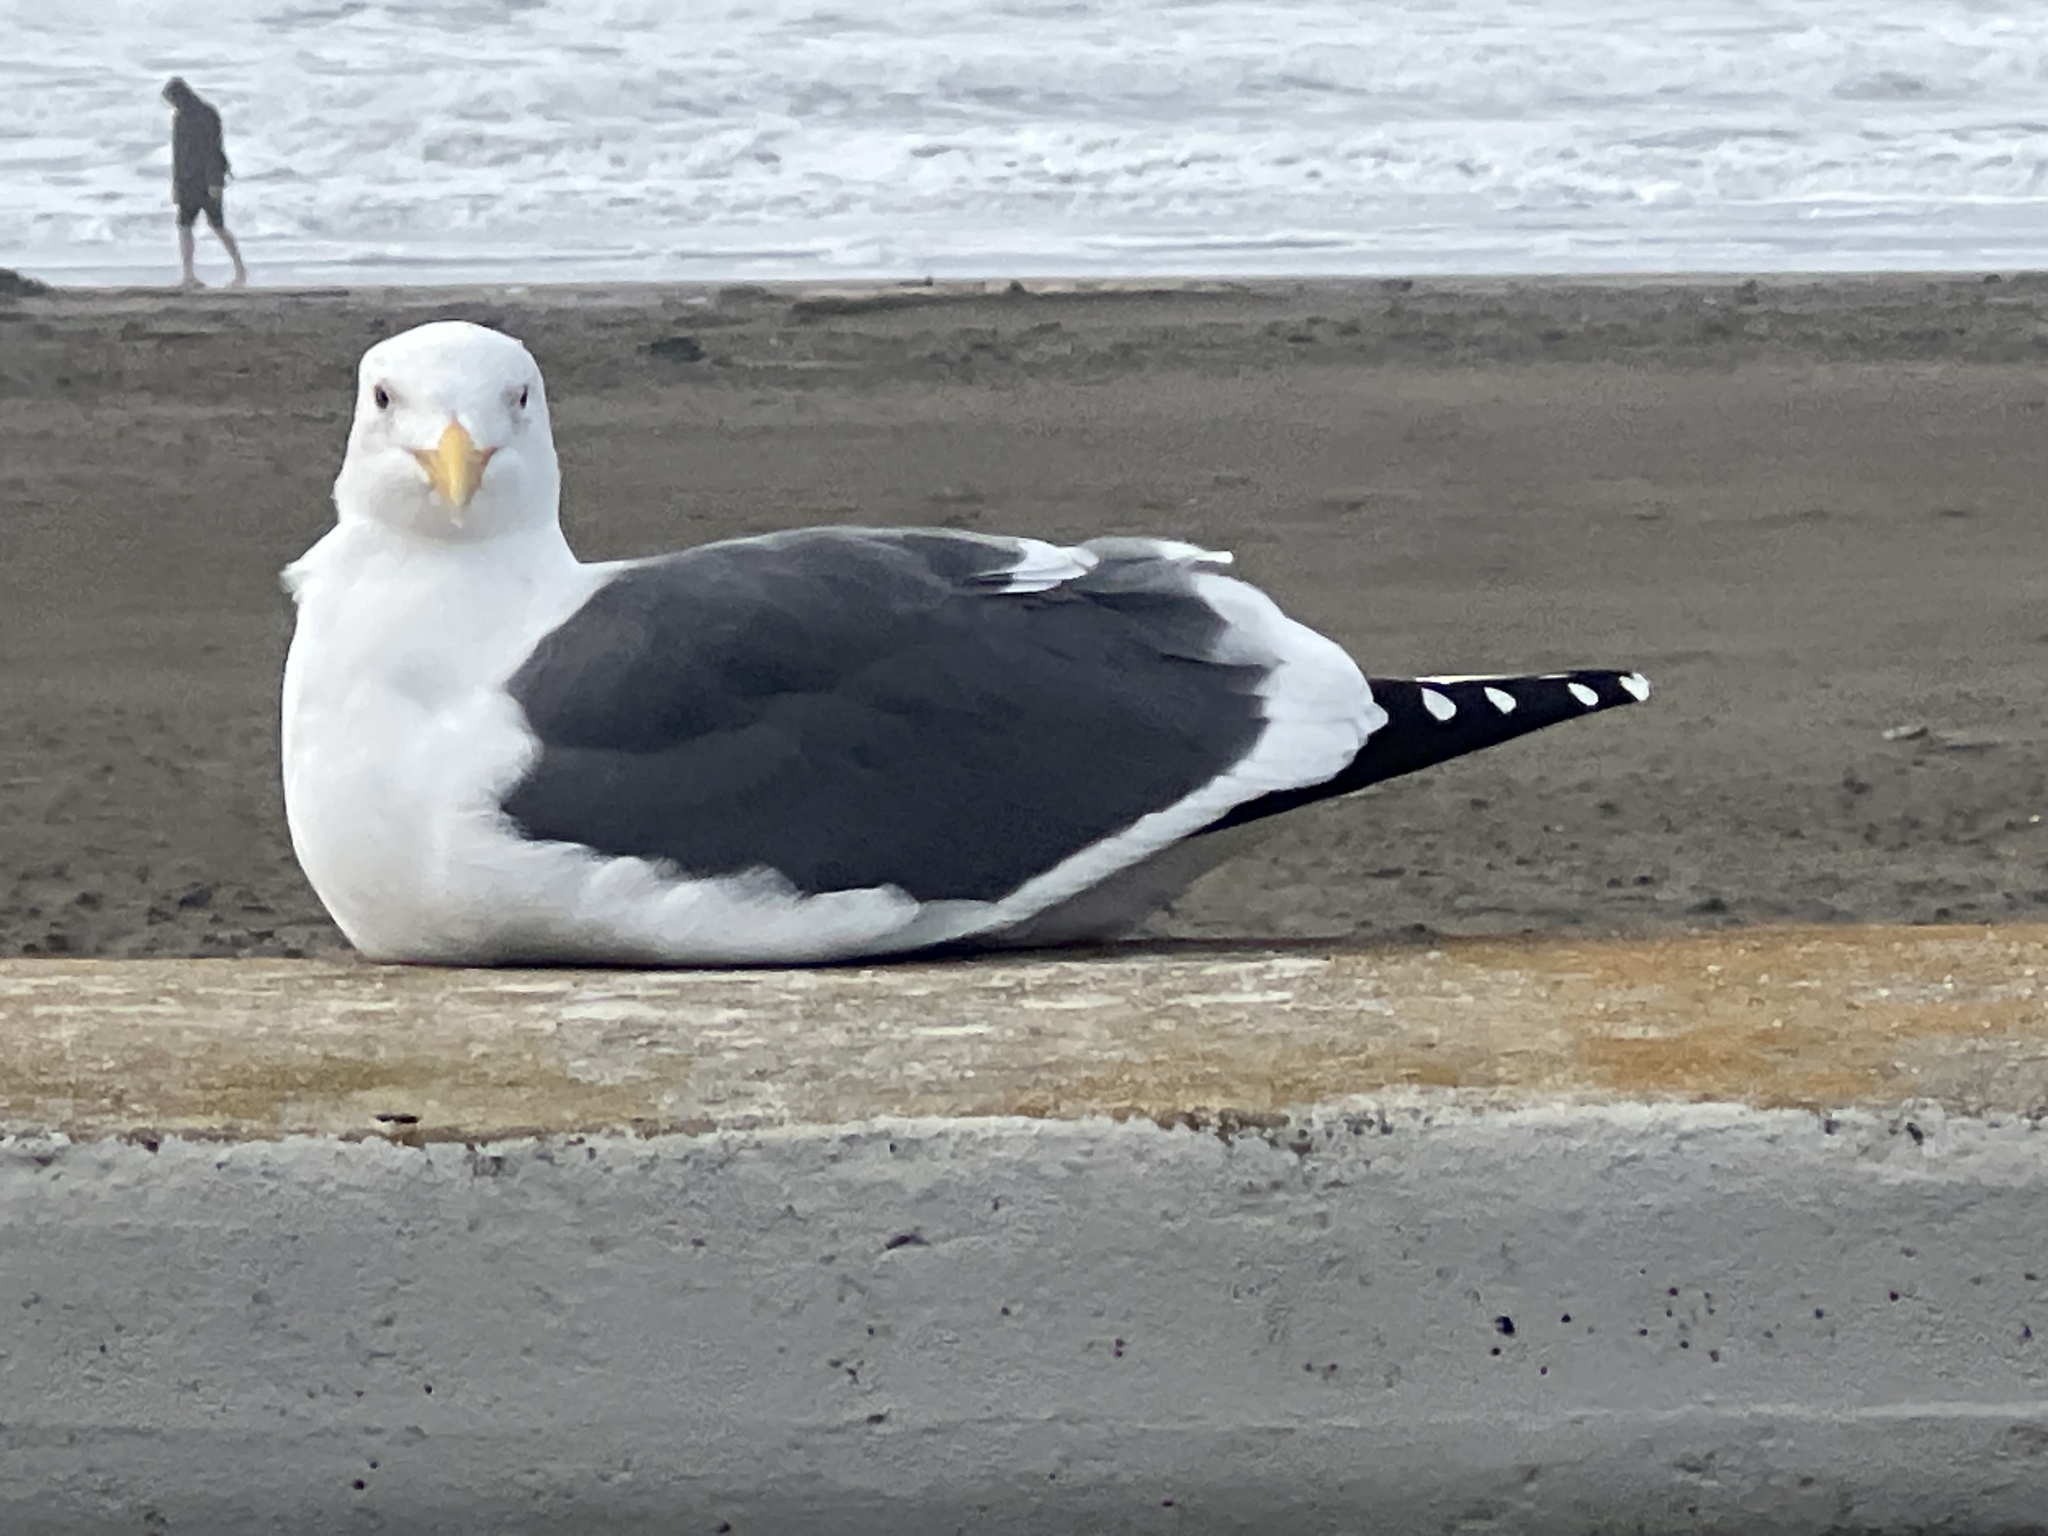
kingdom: Animalia
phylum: Chordata
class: Aves
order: Charadriiformes
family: Laridae
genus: Larus
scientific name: Larus occidentalis
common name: Western gull
